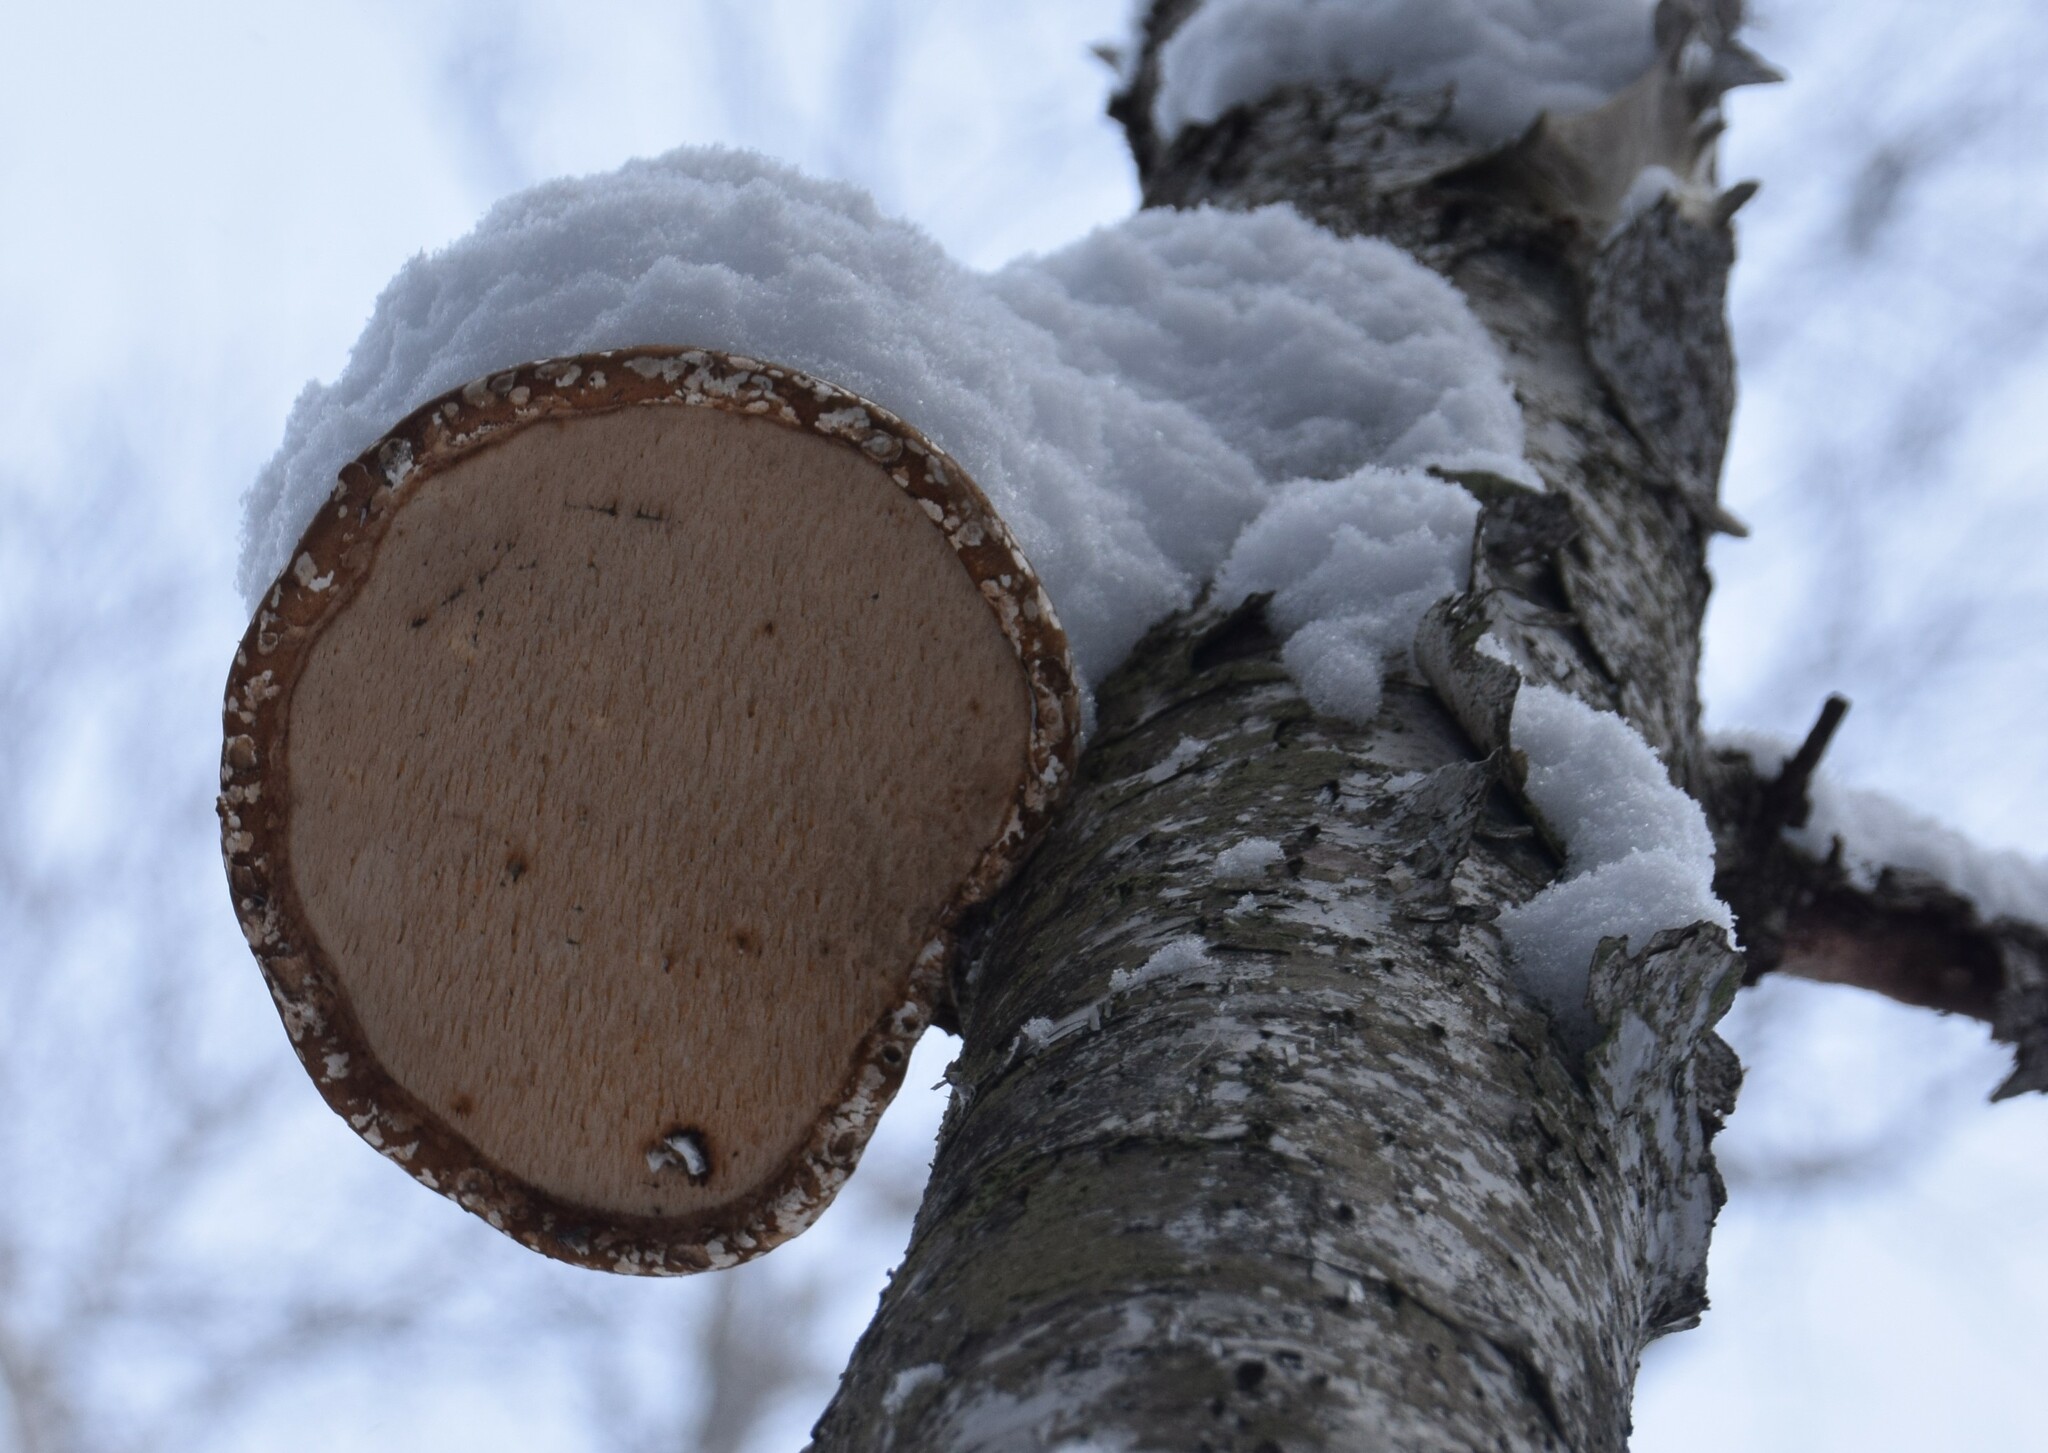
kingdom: Fungi
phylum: Basidiomycota
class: Agaricomycetes
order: Polyporales
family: Fomitopsidaceae
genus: Fomitopsis
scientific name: Fomitopsis betulina
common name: Birch polypore
